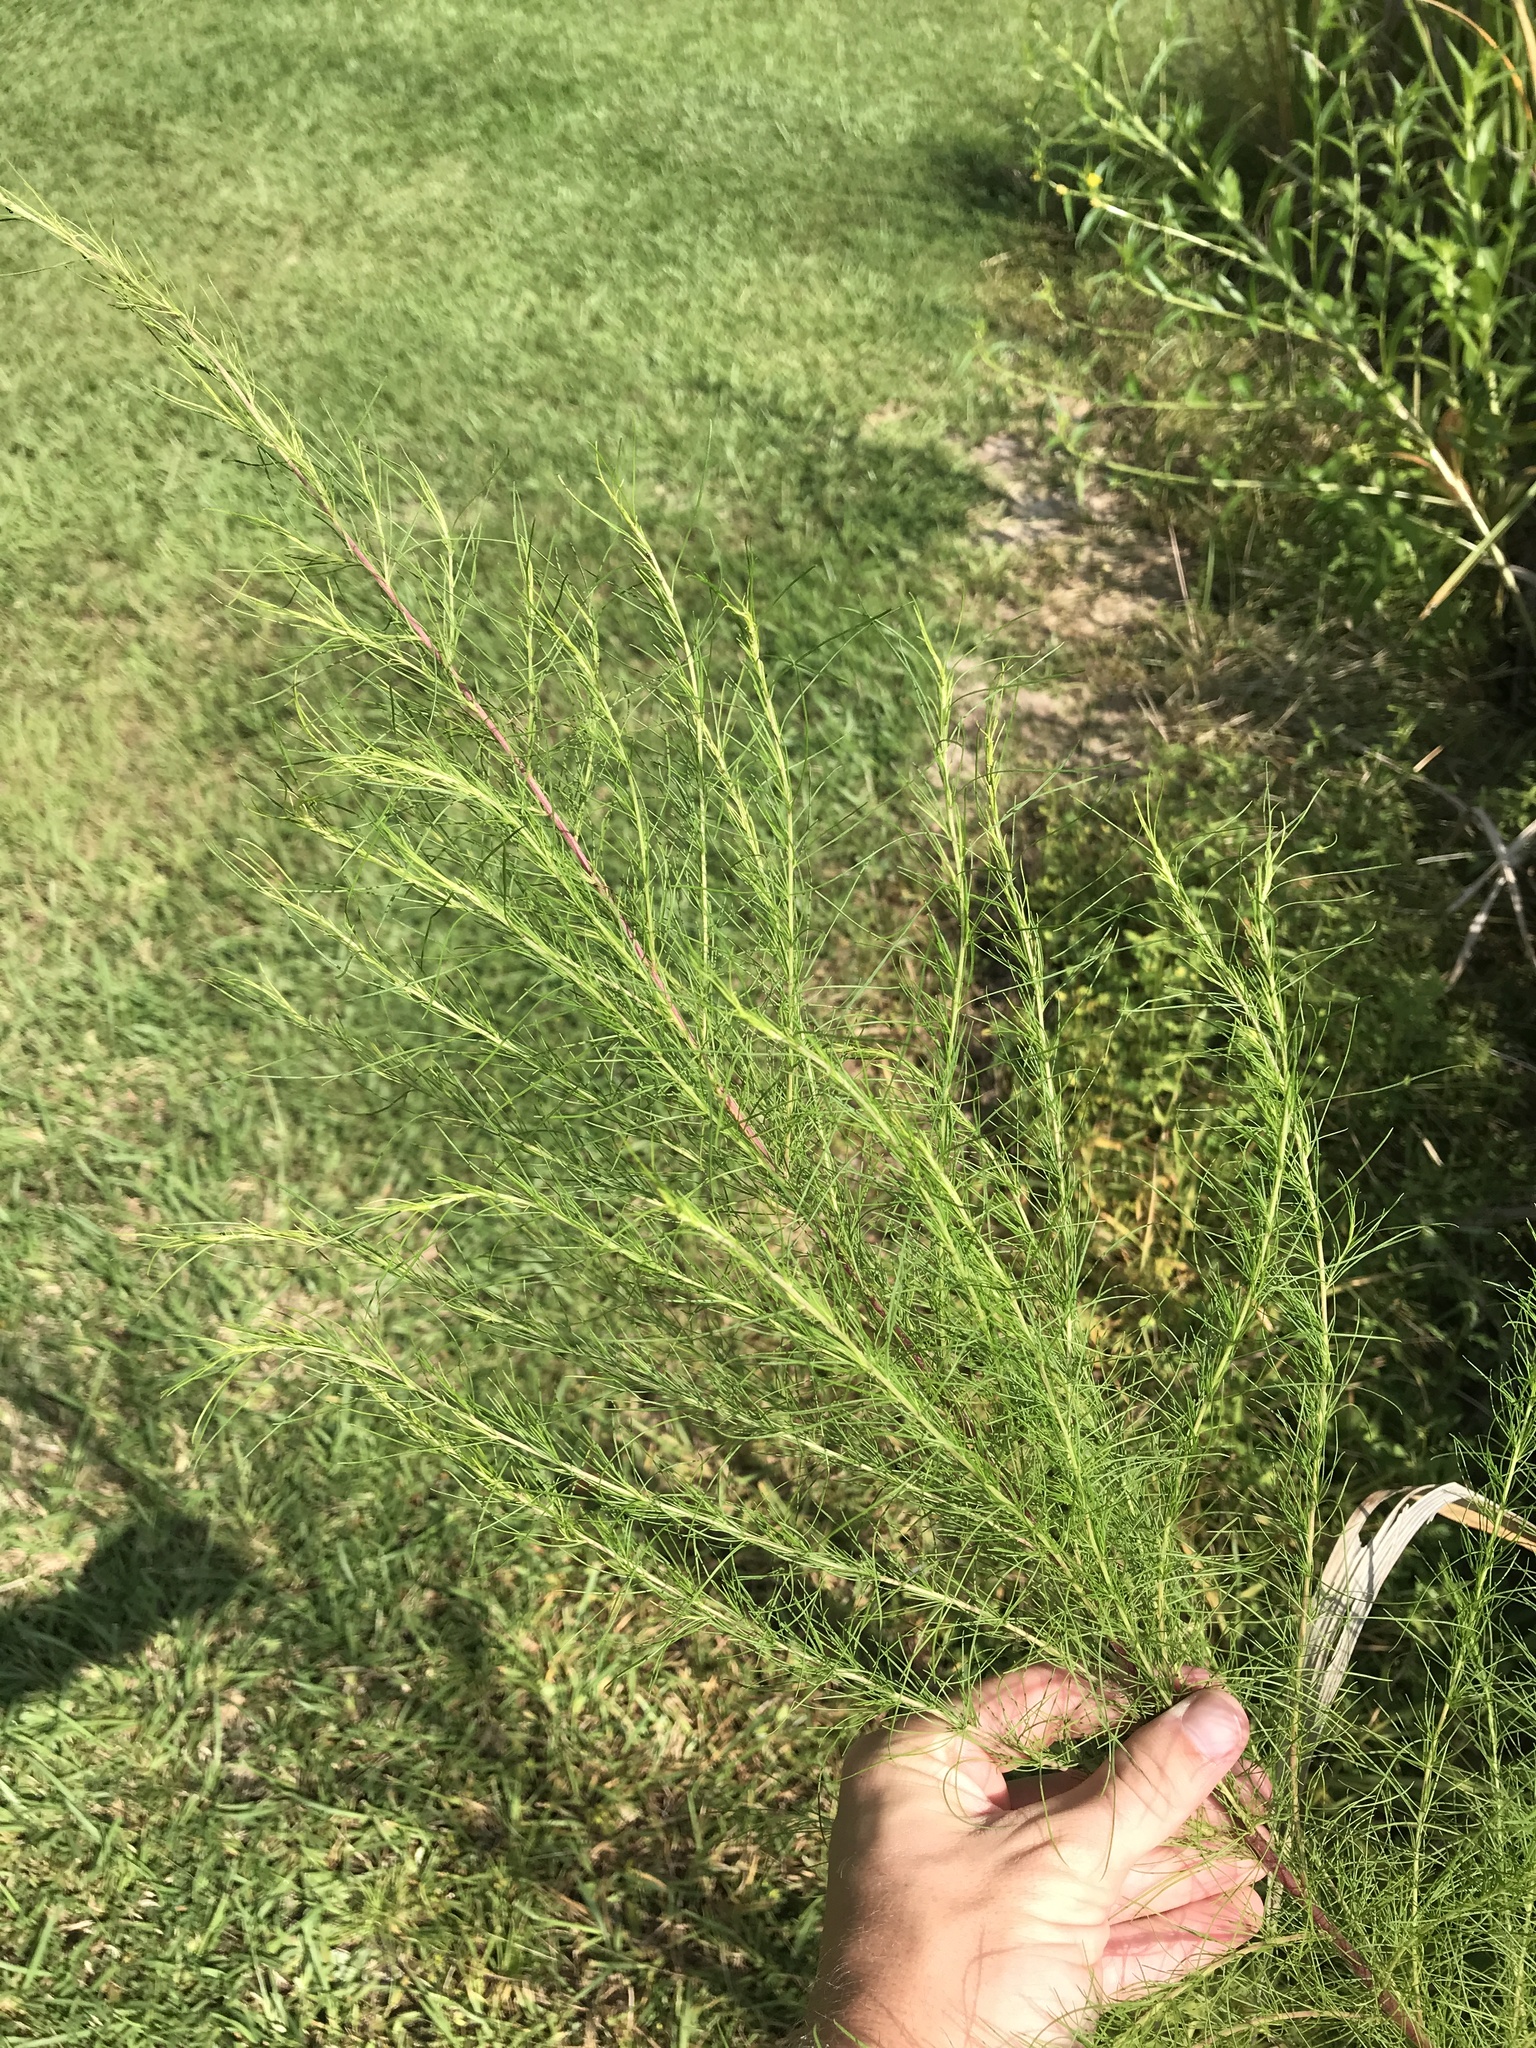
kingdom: Plantae
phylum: Tracheophyta
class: Magnoliopsida
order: Asterales
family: Asteraceae
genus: Eupatorium
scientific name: Eupatorium capillifolium
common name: Dog-fennel
